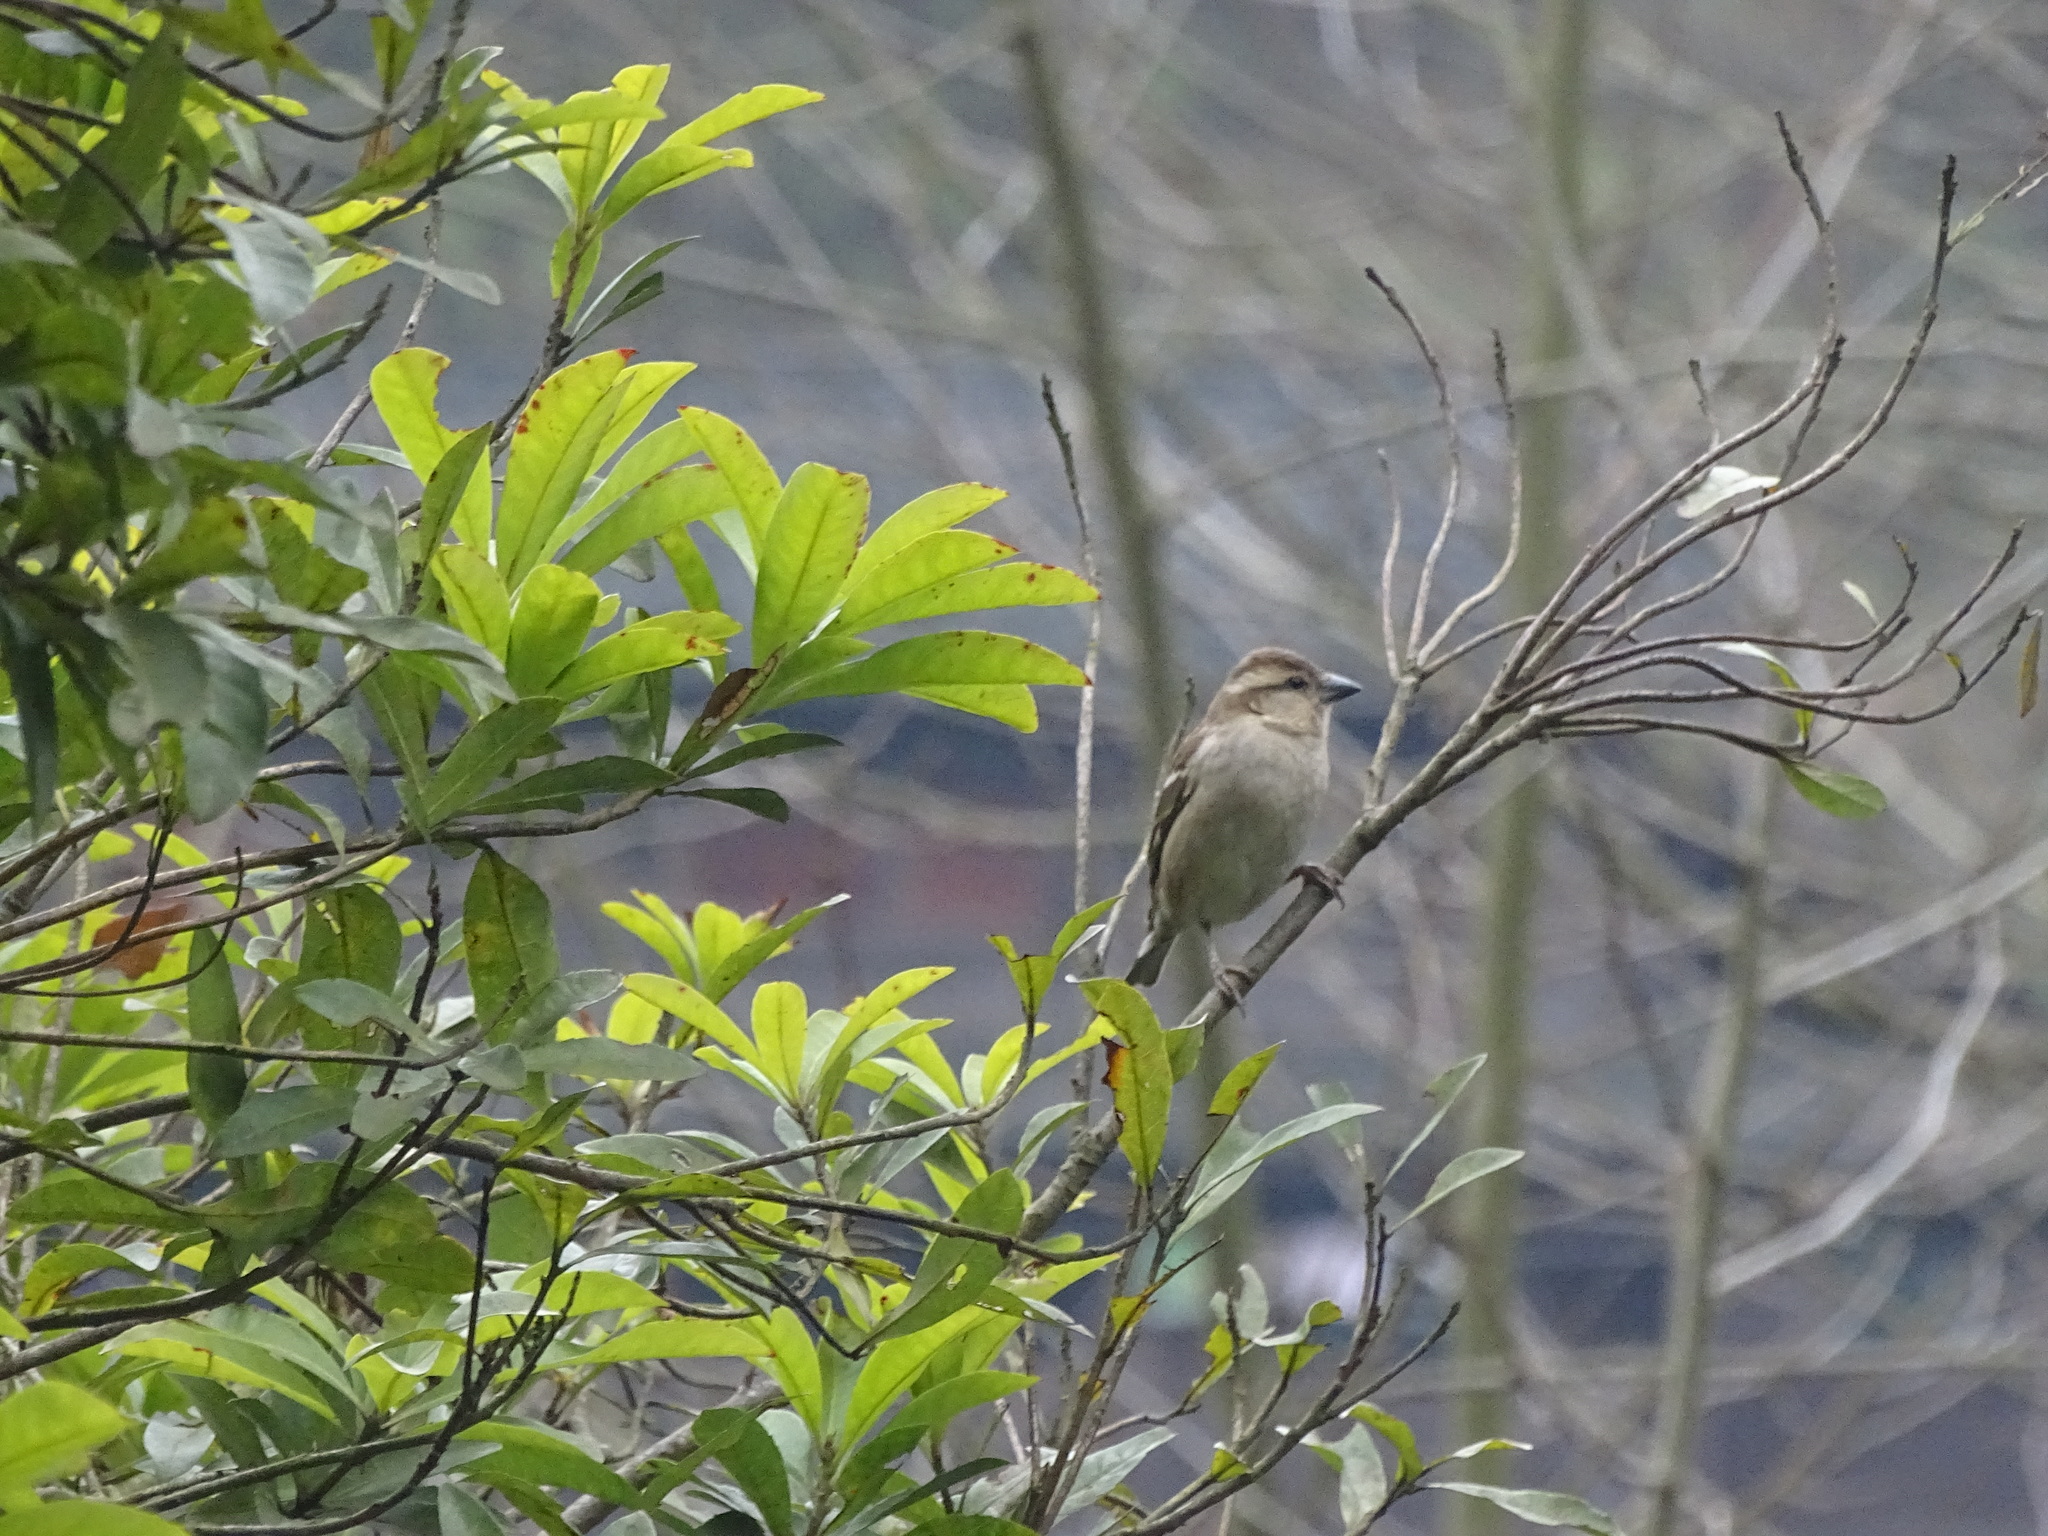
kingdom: Animalia
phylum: Chordata
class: Aves
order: Passeriformes
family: Passeridae
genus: Passer
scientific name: Passer cinnamomeus
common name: Russet sparrow
